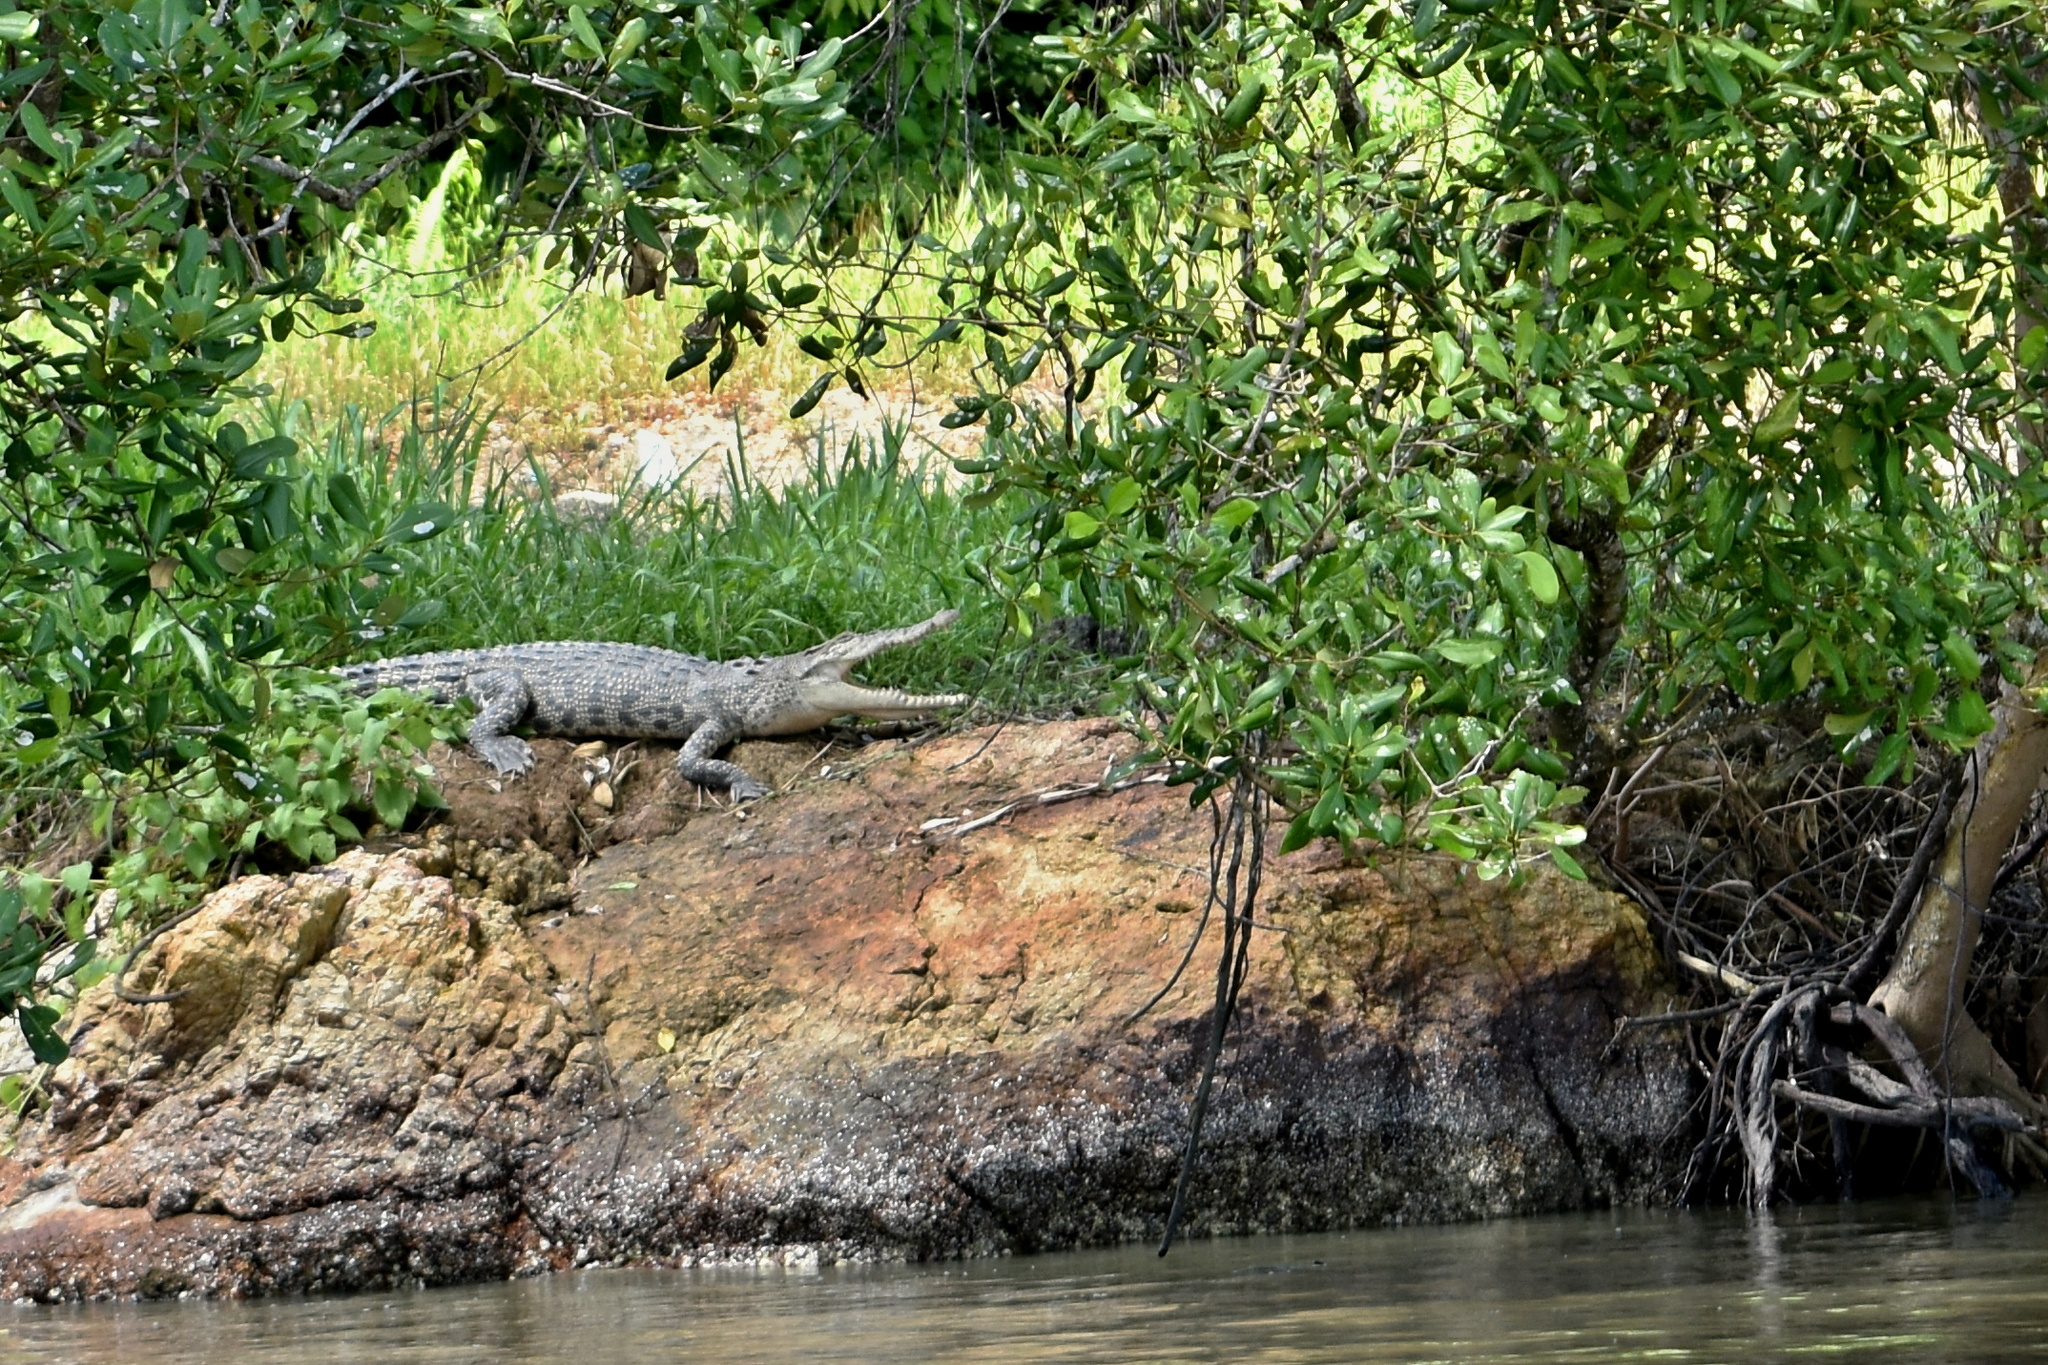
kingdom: Animalia
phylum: Chordata
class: Crocodylia
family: Crocodylidae
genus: Crocodylus
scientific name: Crocodylus porosus
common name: Saltwater crocodile
